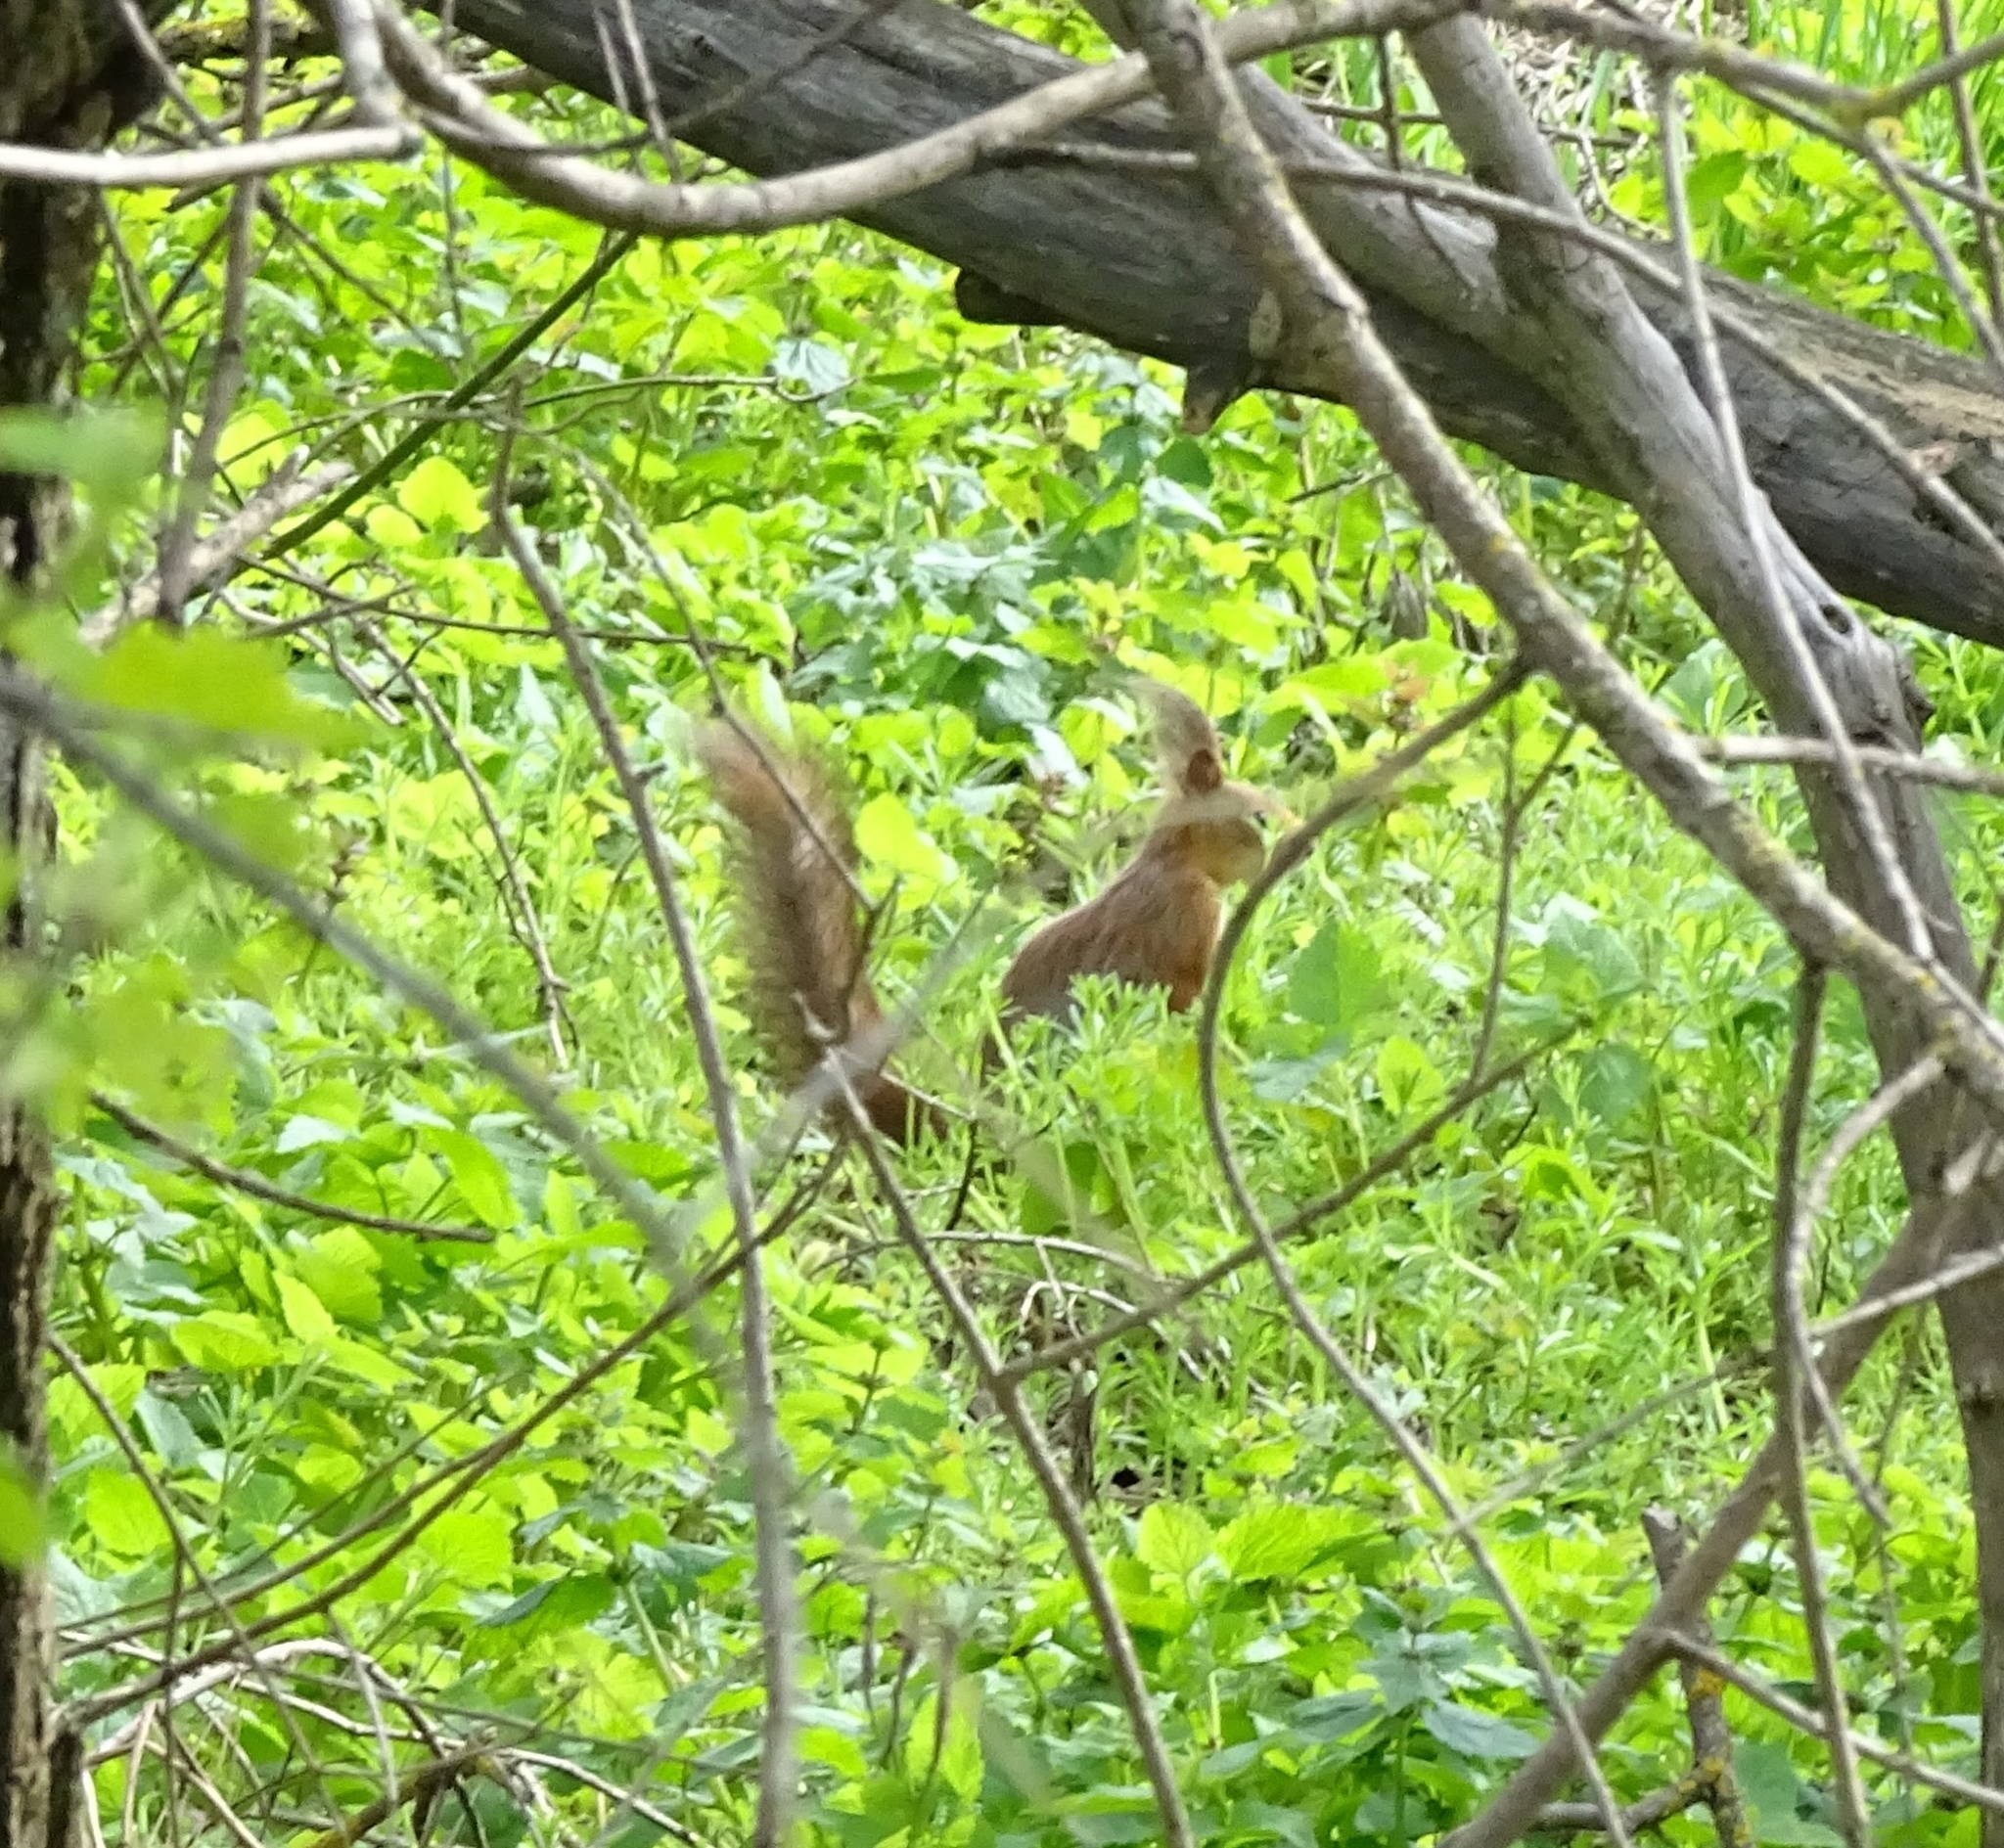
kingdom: Animalia
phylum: Chordata
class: Mammalia
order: Rodentia
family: Sciuridae
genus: Sciurus
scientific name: Sciurus vulgaris
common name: Eurasian red squirrel
